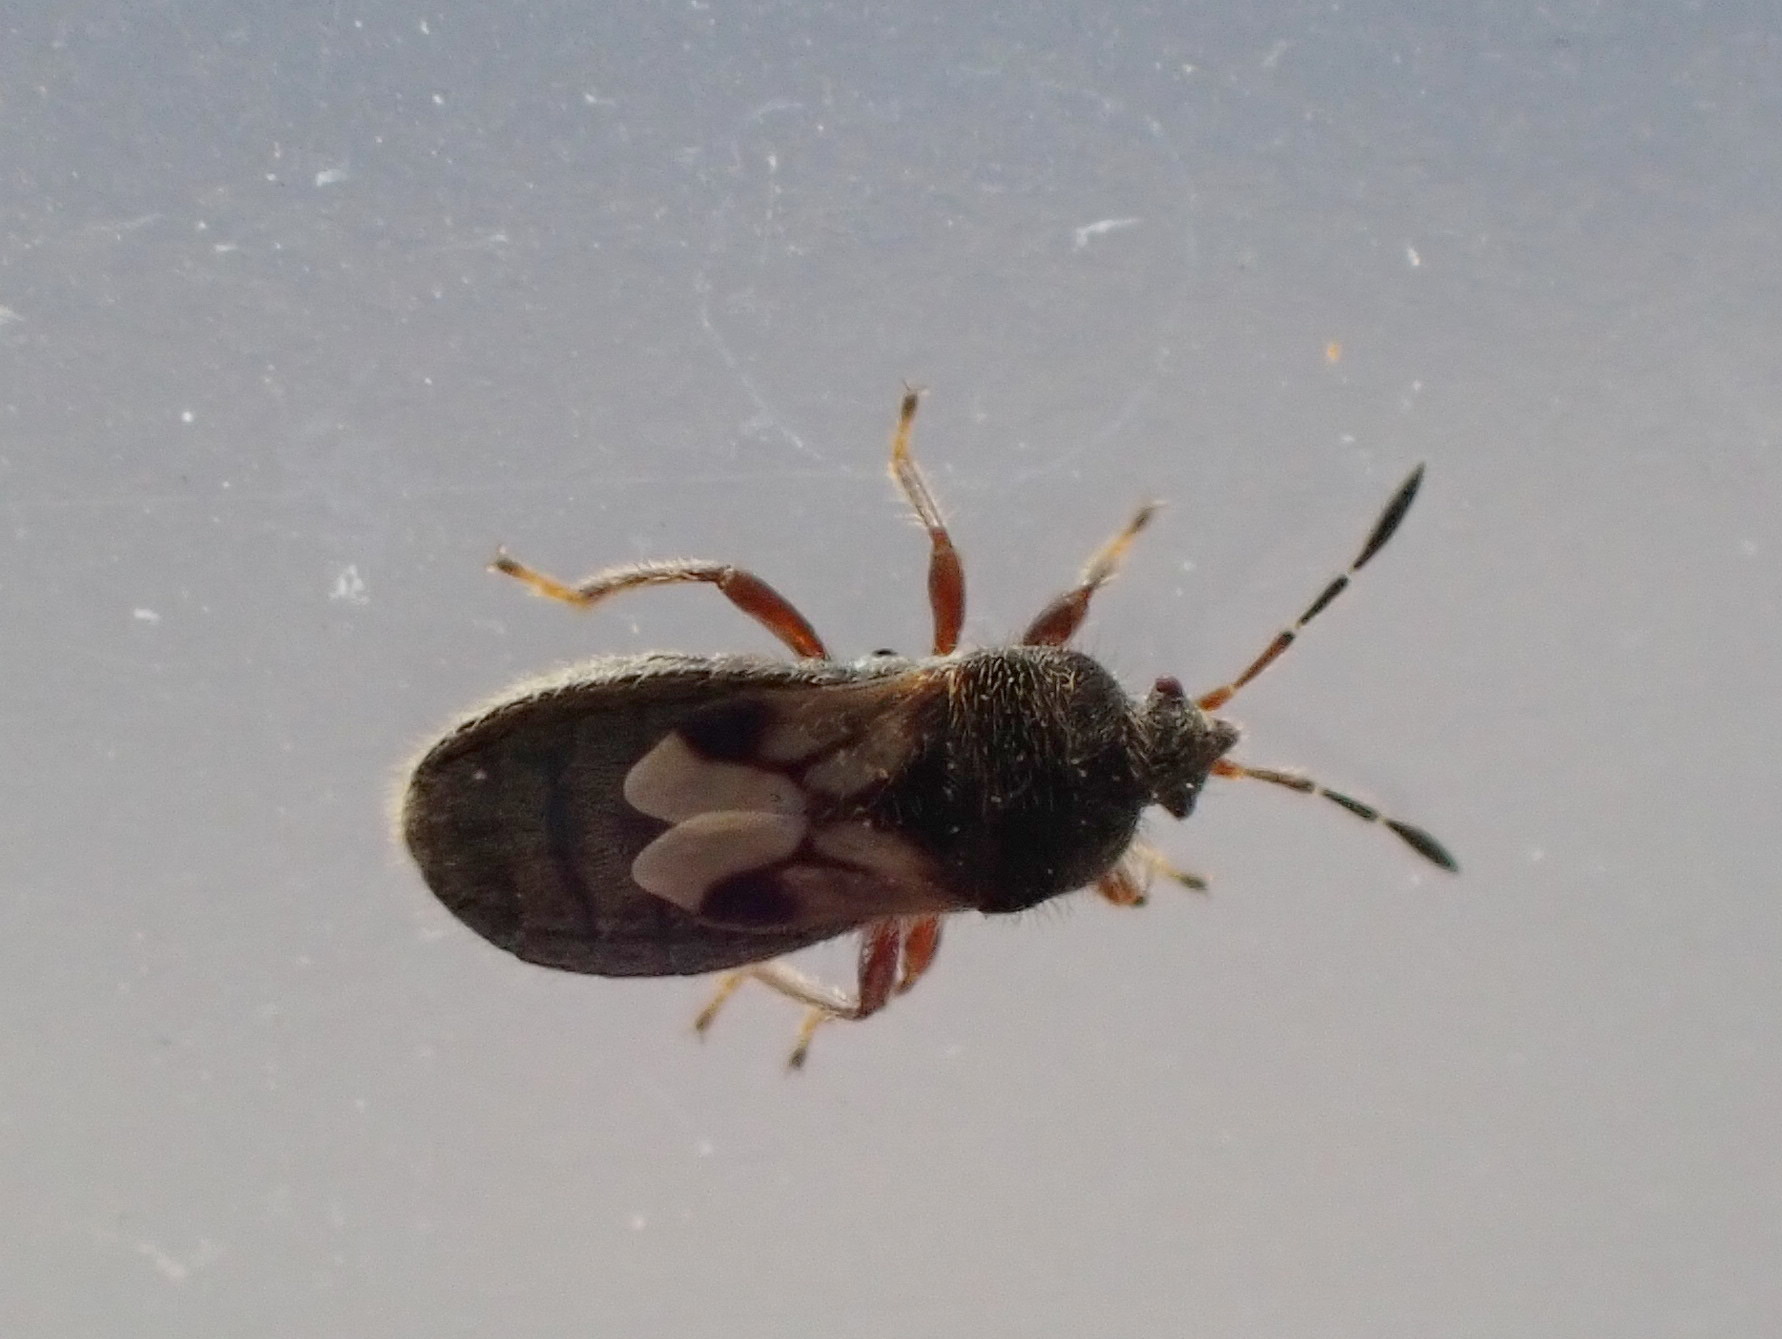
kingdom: Animalia
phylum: Arthropoda
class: Insecta
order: Hemiptera
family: Blissidae
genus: Blissus
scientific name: Blissus leucopterus
